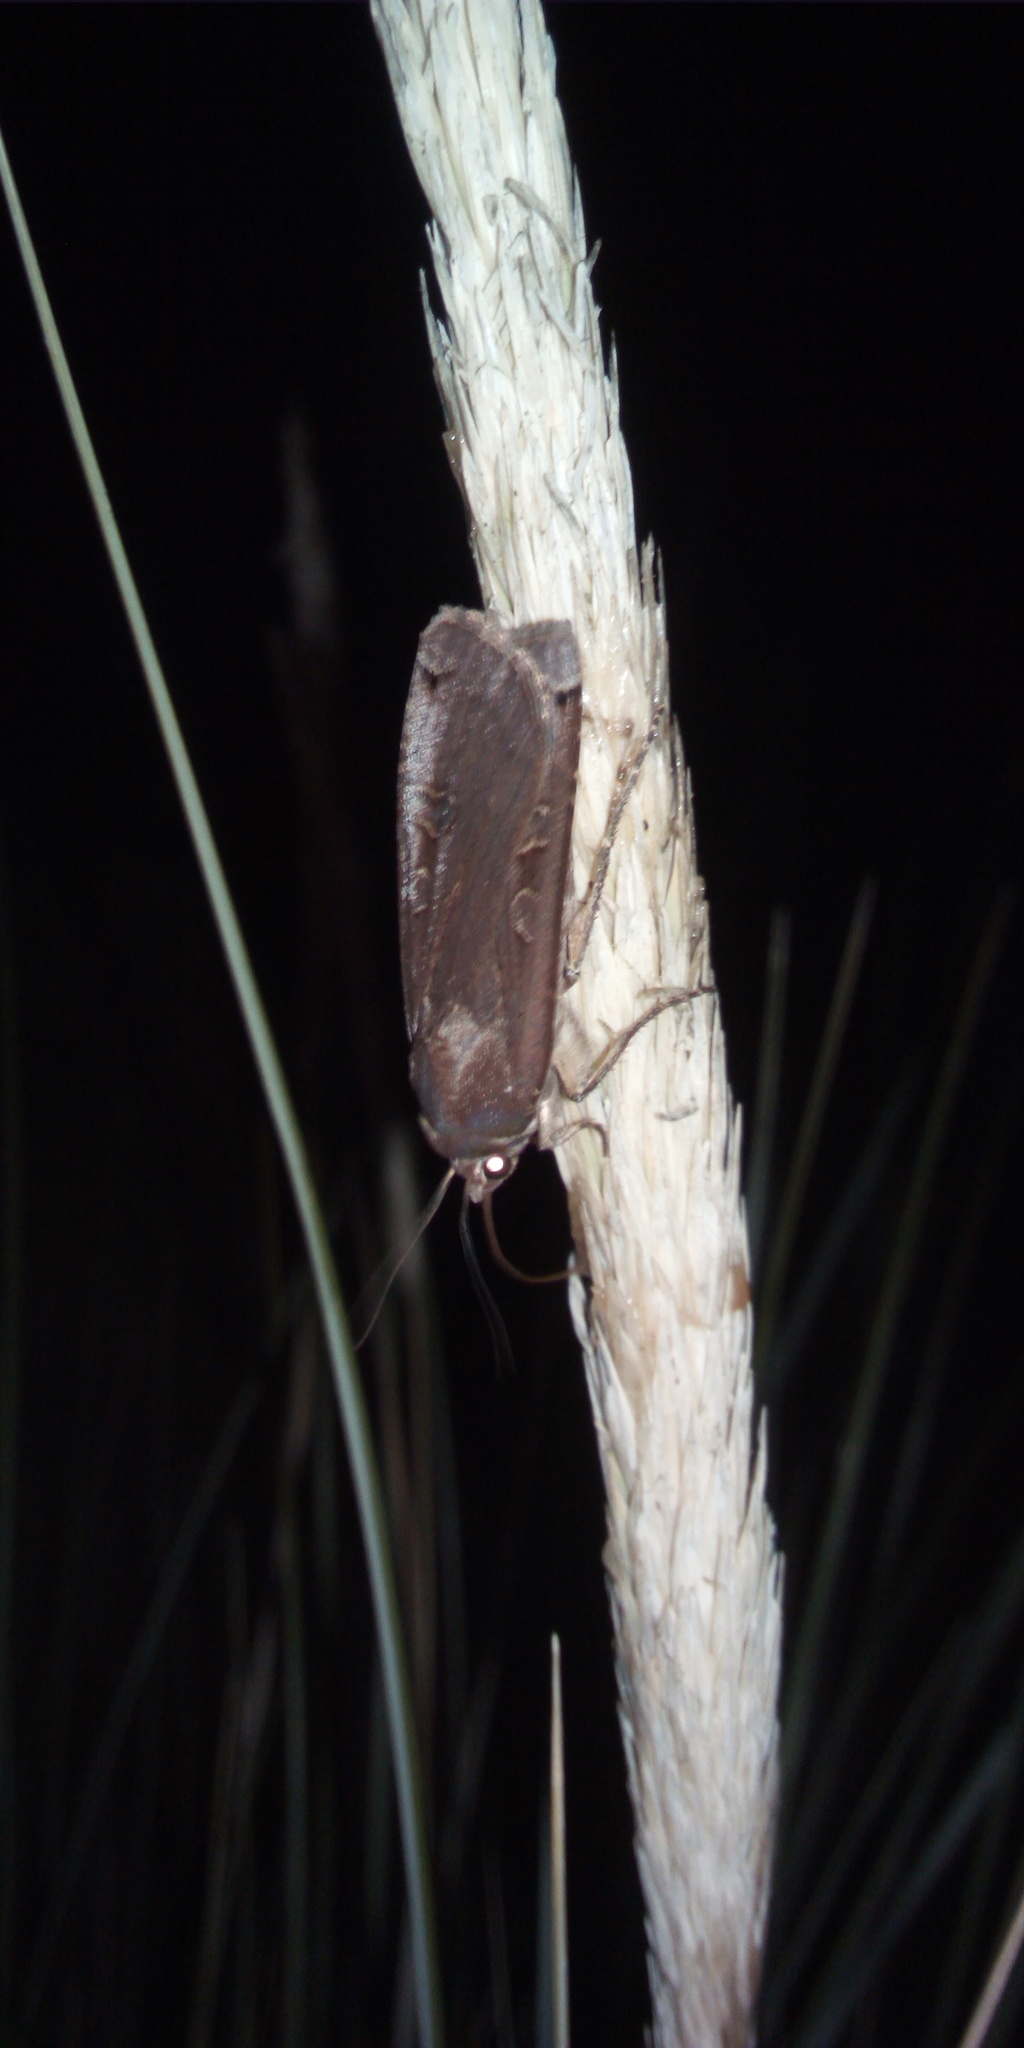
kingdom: Animalia
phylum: Arthropoda
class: Insecta
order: Lepidoptera
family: Noctuidae
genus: Noctua
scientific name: Noctua pronuba
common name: Large yellow underwing
